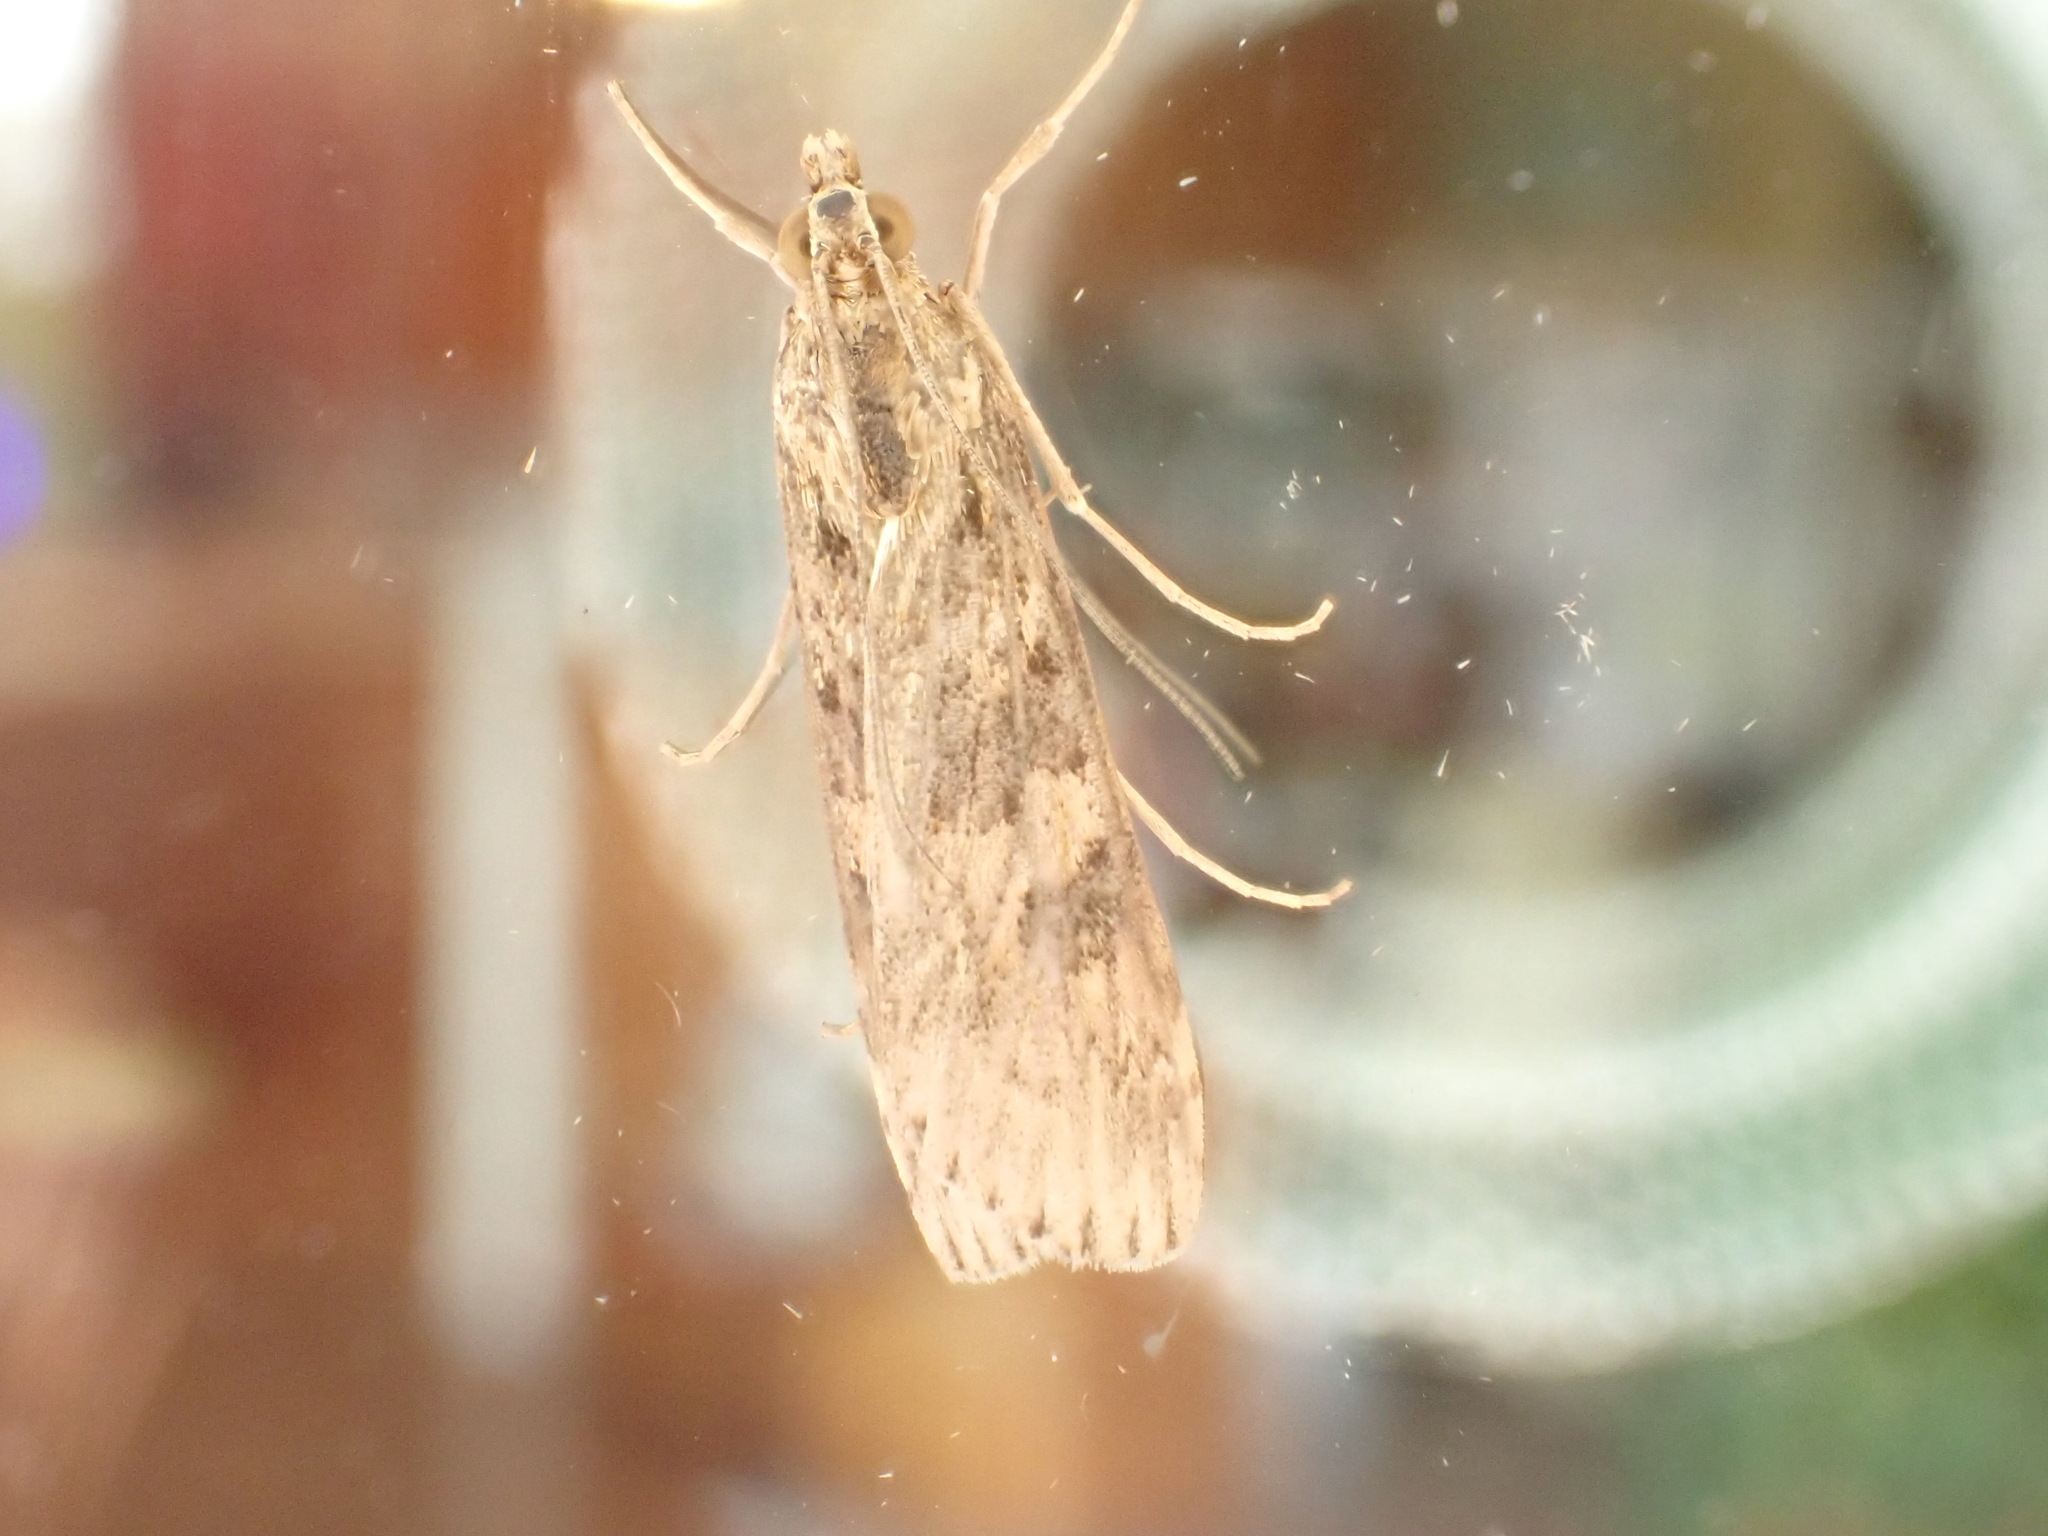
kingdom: Animalia
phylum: Arthropoda
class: Insecta
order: Lepidoptera
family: Crambidae
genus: Nomophila
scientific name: Nomophila nearctica
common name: American rush veneer
